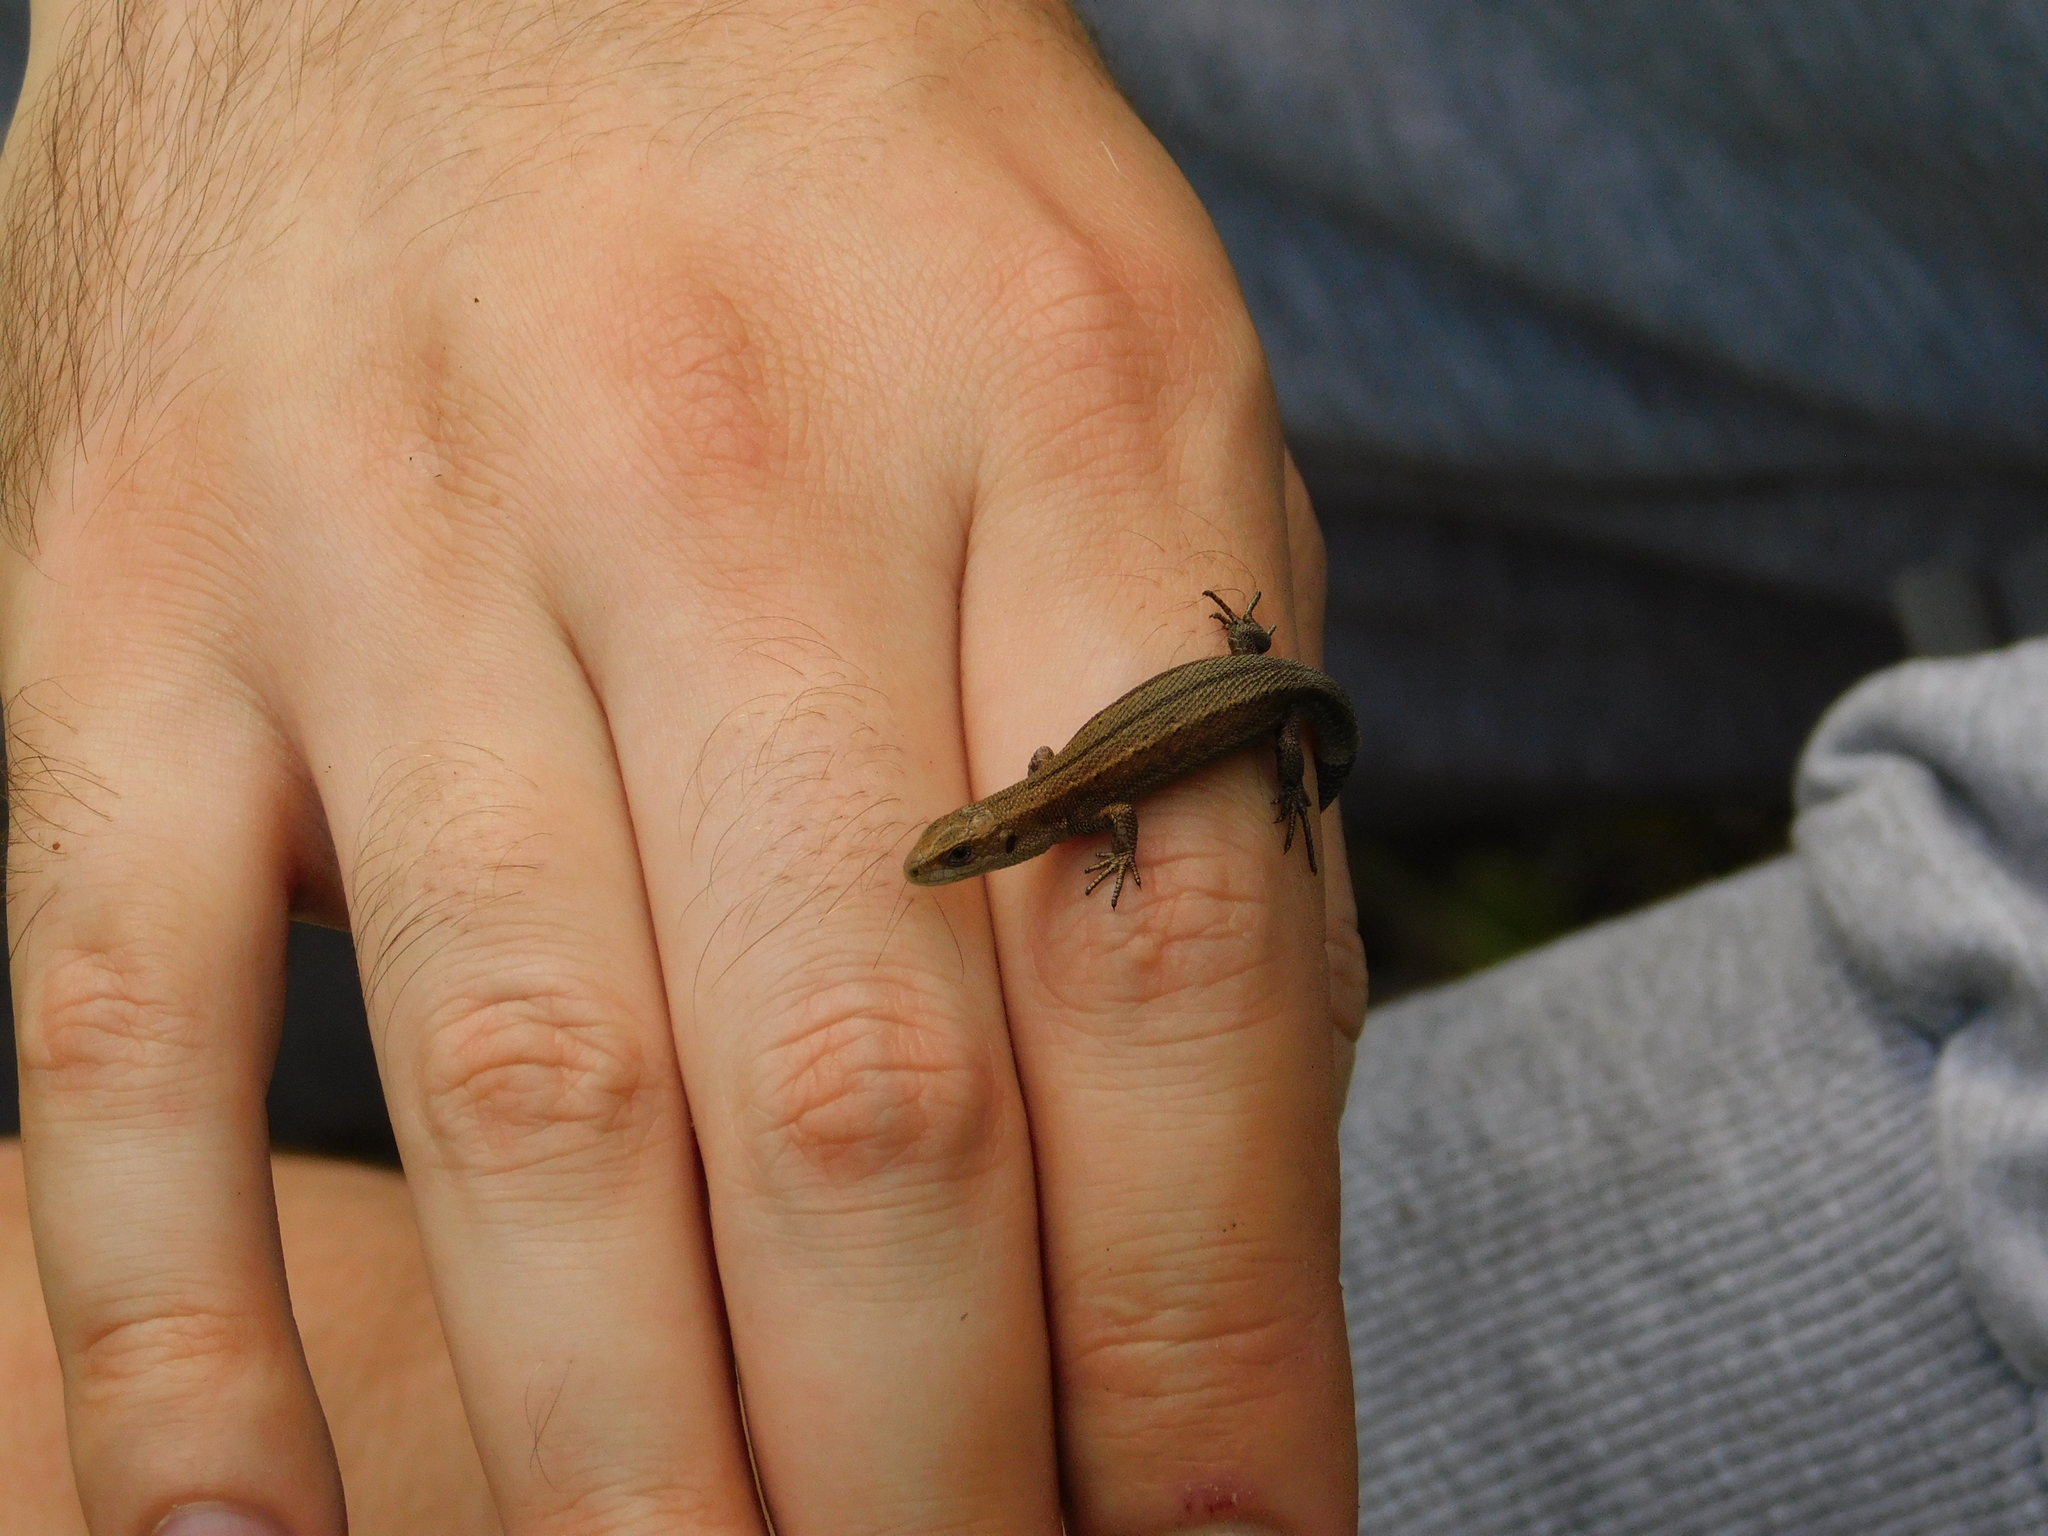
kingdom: Animalia
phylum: Chordata
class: Squamata
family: Lacertidae
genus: Zootoca
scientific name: Zootoca vivipara
